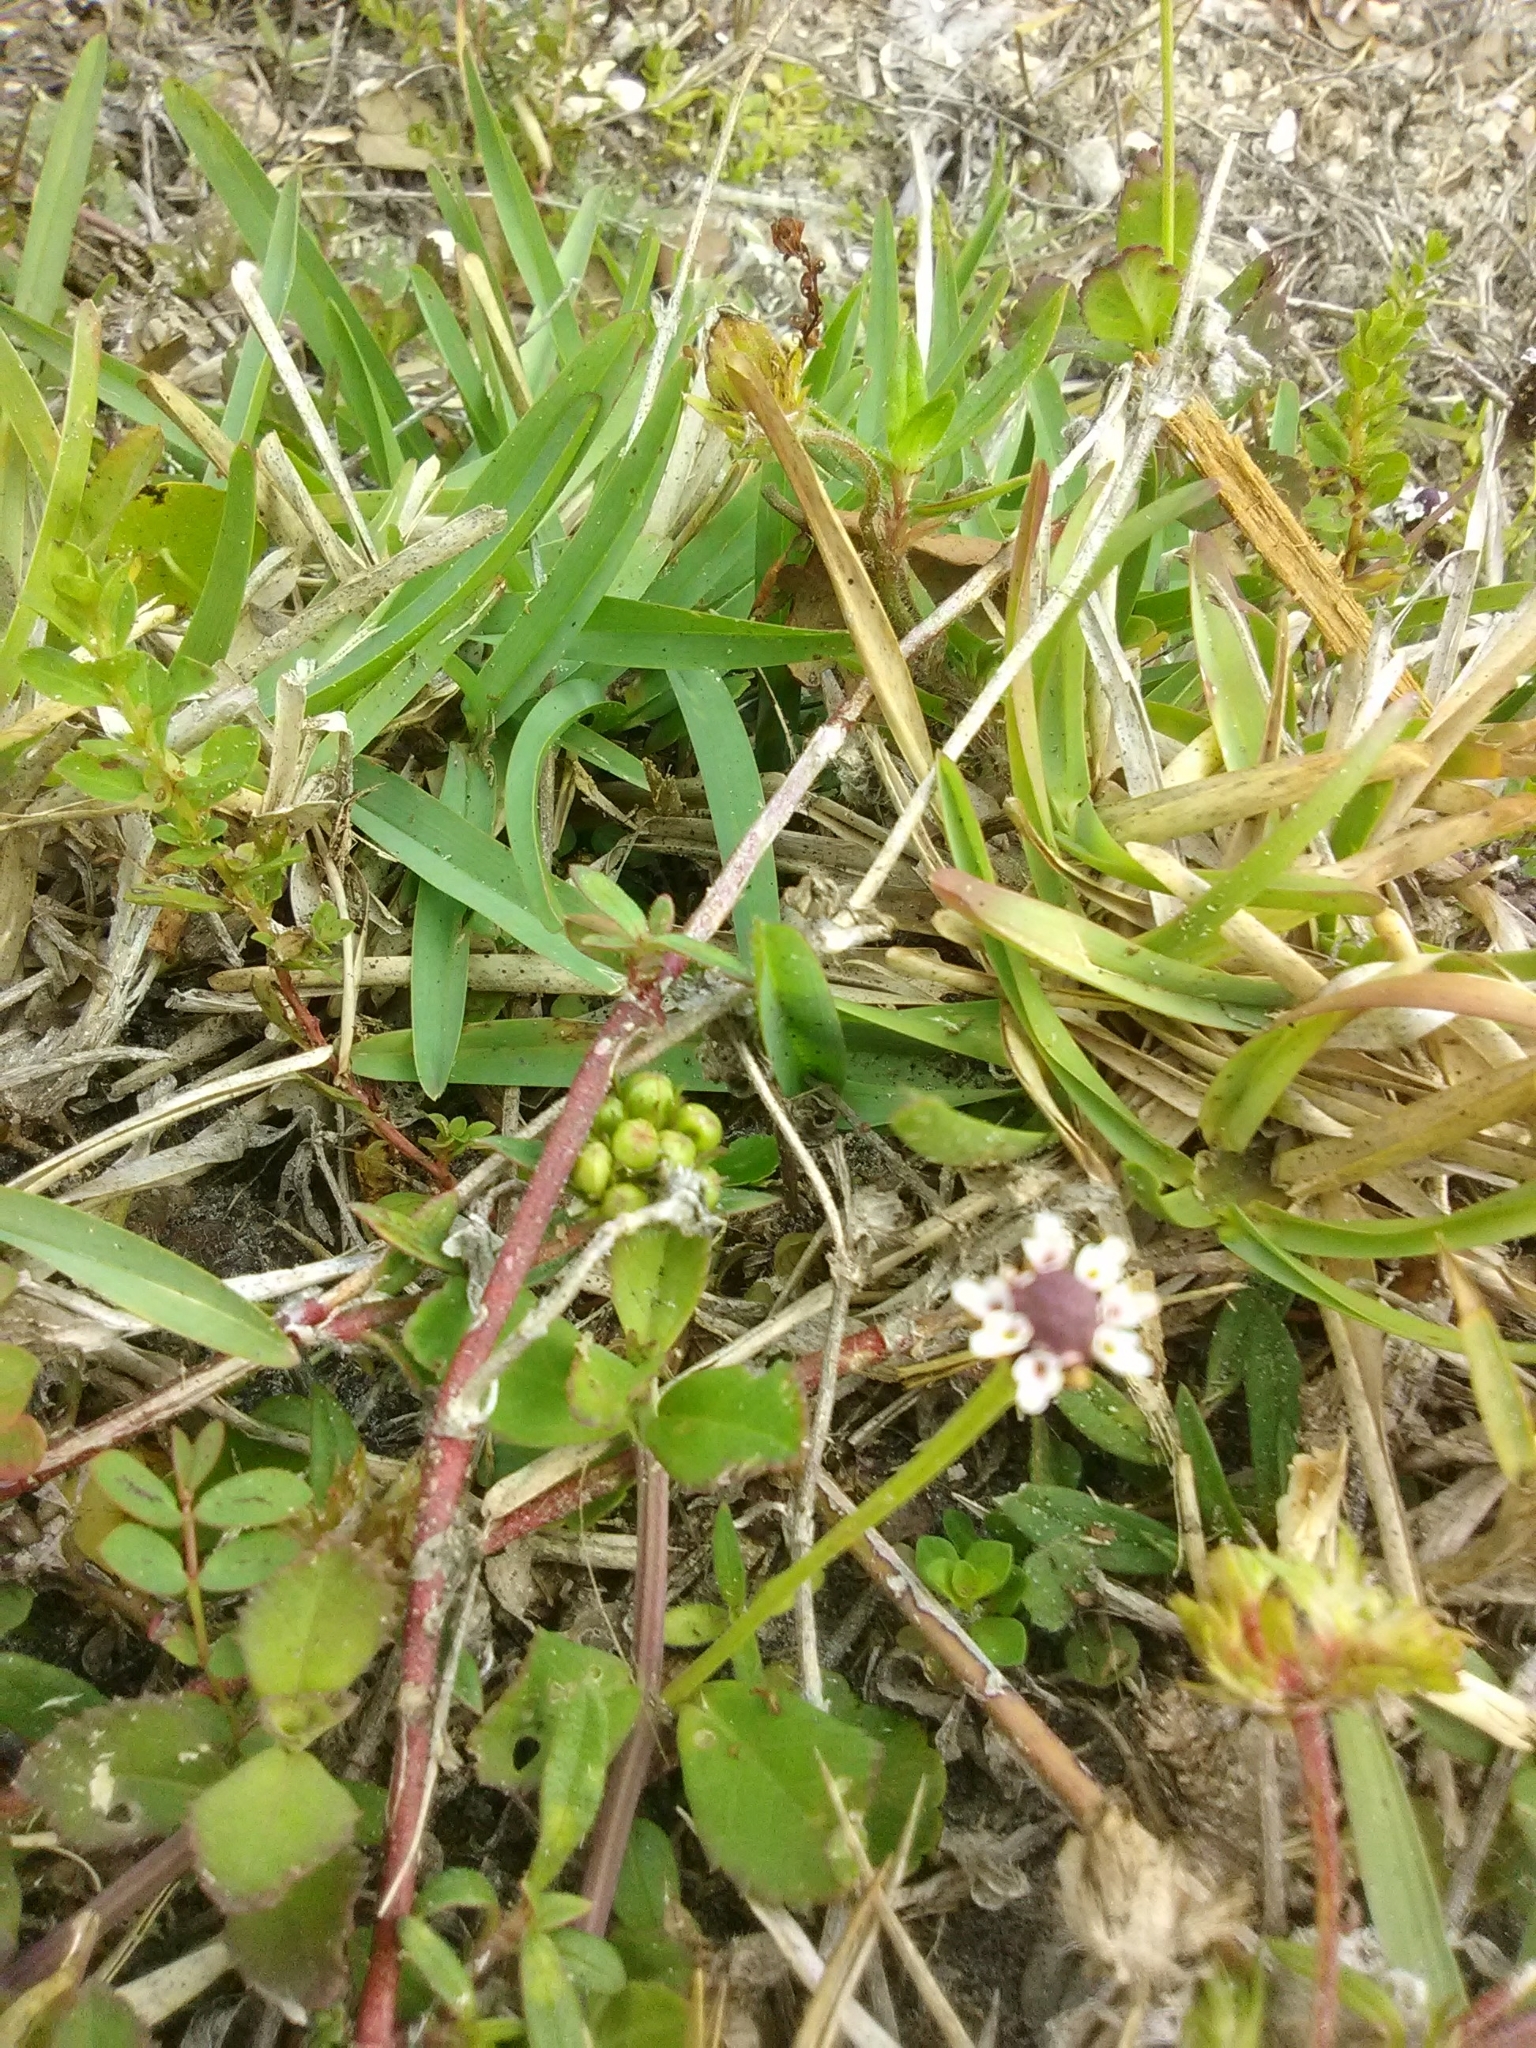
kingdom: Plantae
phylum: Tracheophyta
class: Magnoliopsida
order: Lamiales
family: Verbenaceae
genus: Phyla
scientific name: Phyla nodiflora
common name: Frogfruit
